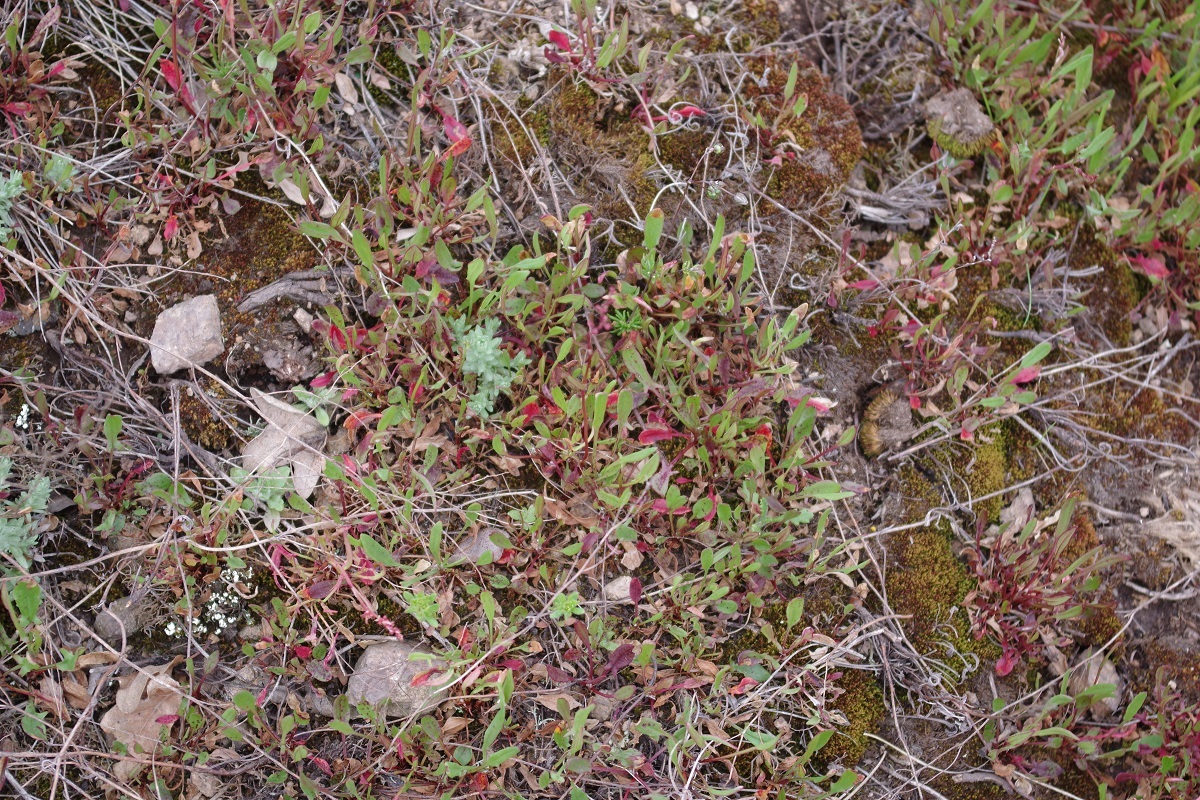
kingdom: Plantae
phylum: Tracheophyta
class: Magnoliopsida
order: Caryophyllales
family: Polygonaceae
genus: Rumex
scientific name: Rumex acetosella
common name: Common sheep sorrel
